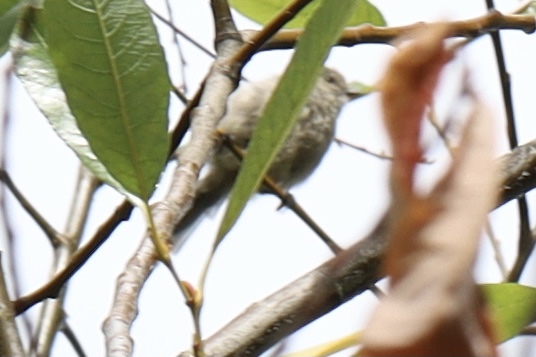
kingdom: Animalia
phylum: Chordata
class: Aves
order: Passeriformes
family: Aegithalidae
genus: Psaltriparus
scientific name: Psaltriparus minimus
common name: American bushtit
